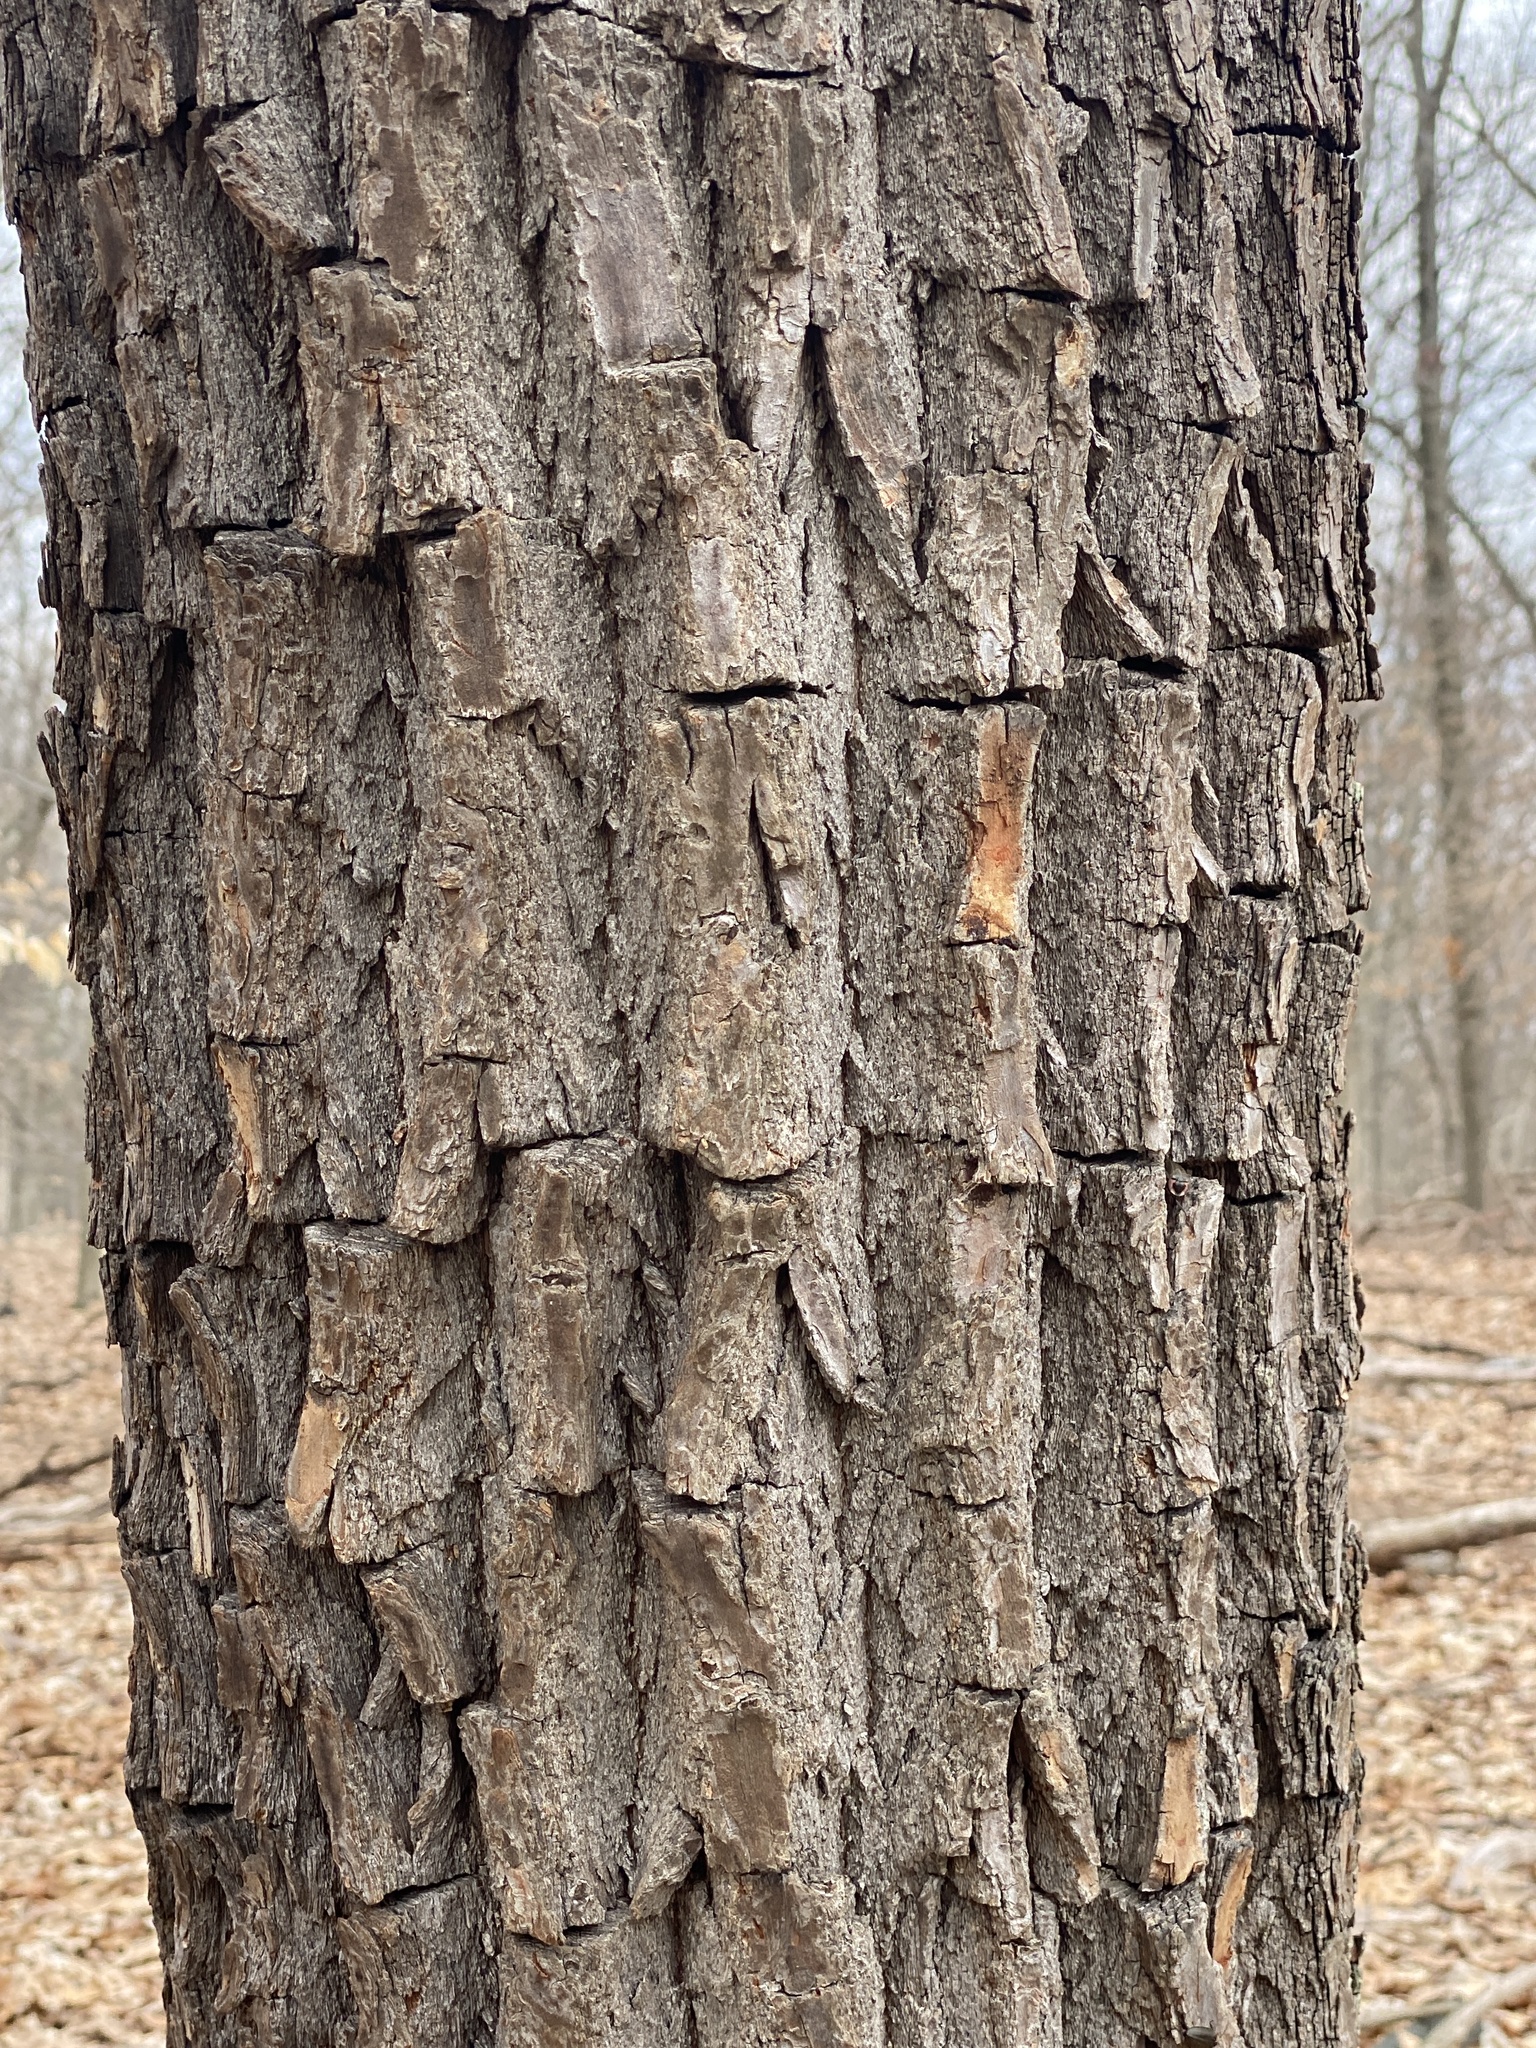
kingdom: Plantae
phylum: Tracheophyta
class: Magnoliopsida
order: Laurales
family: Lauraceae
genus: Sassafras
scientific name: Sassafras albidum
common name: Sassafras
